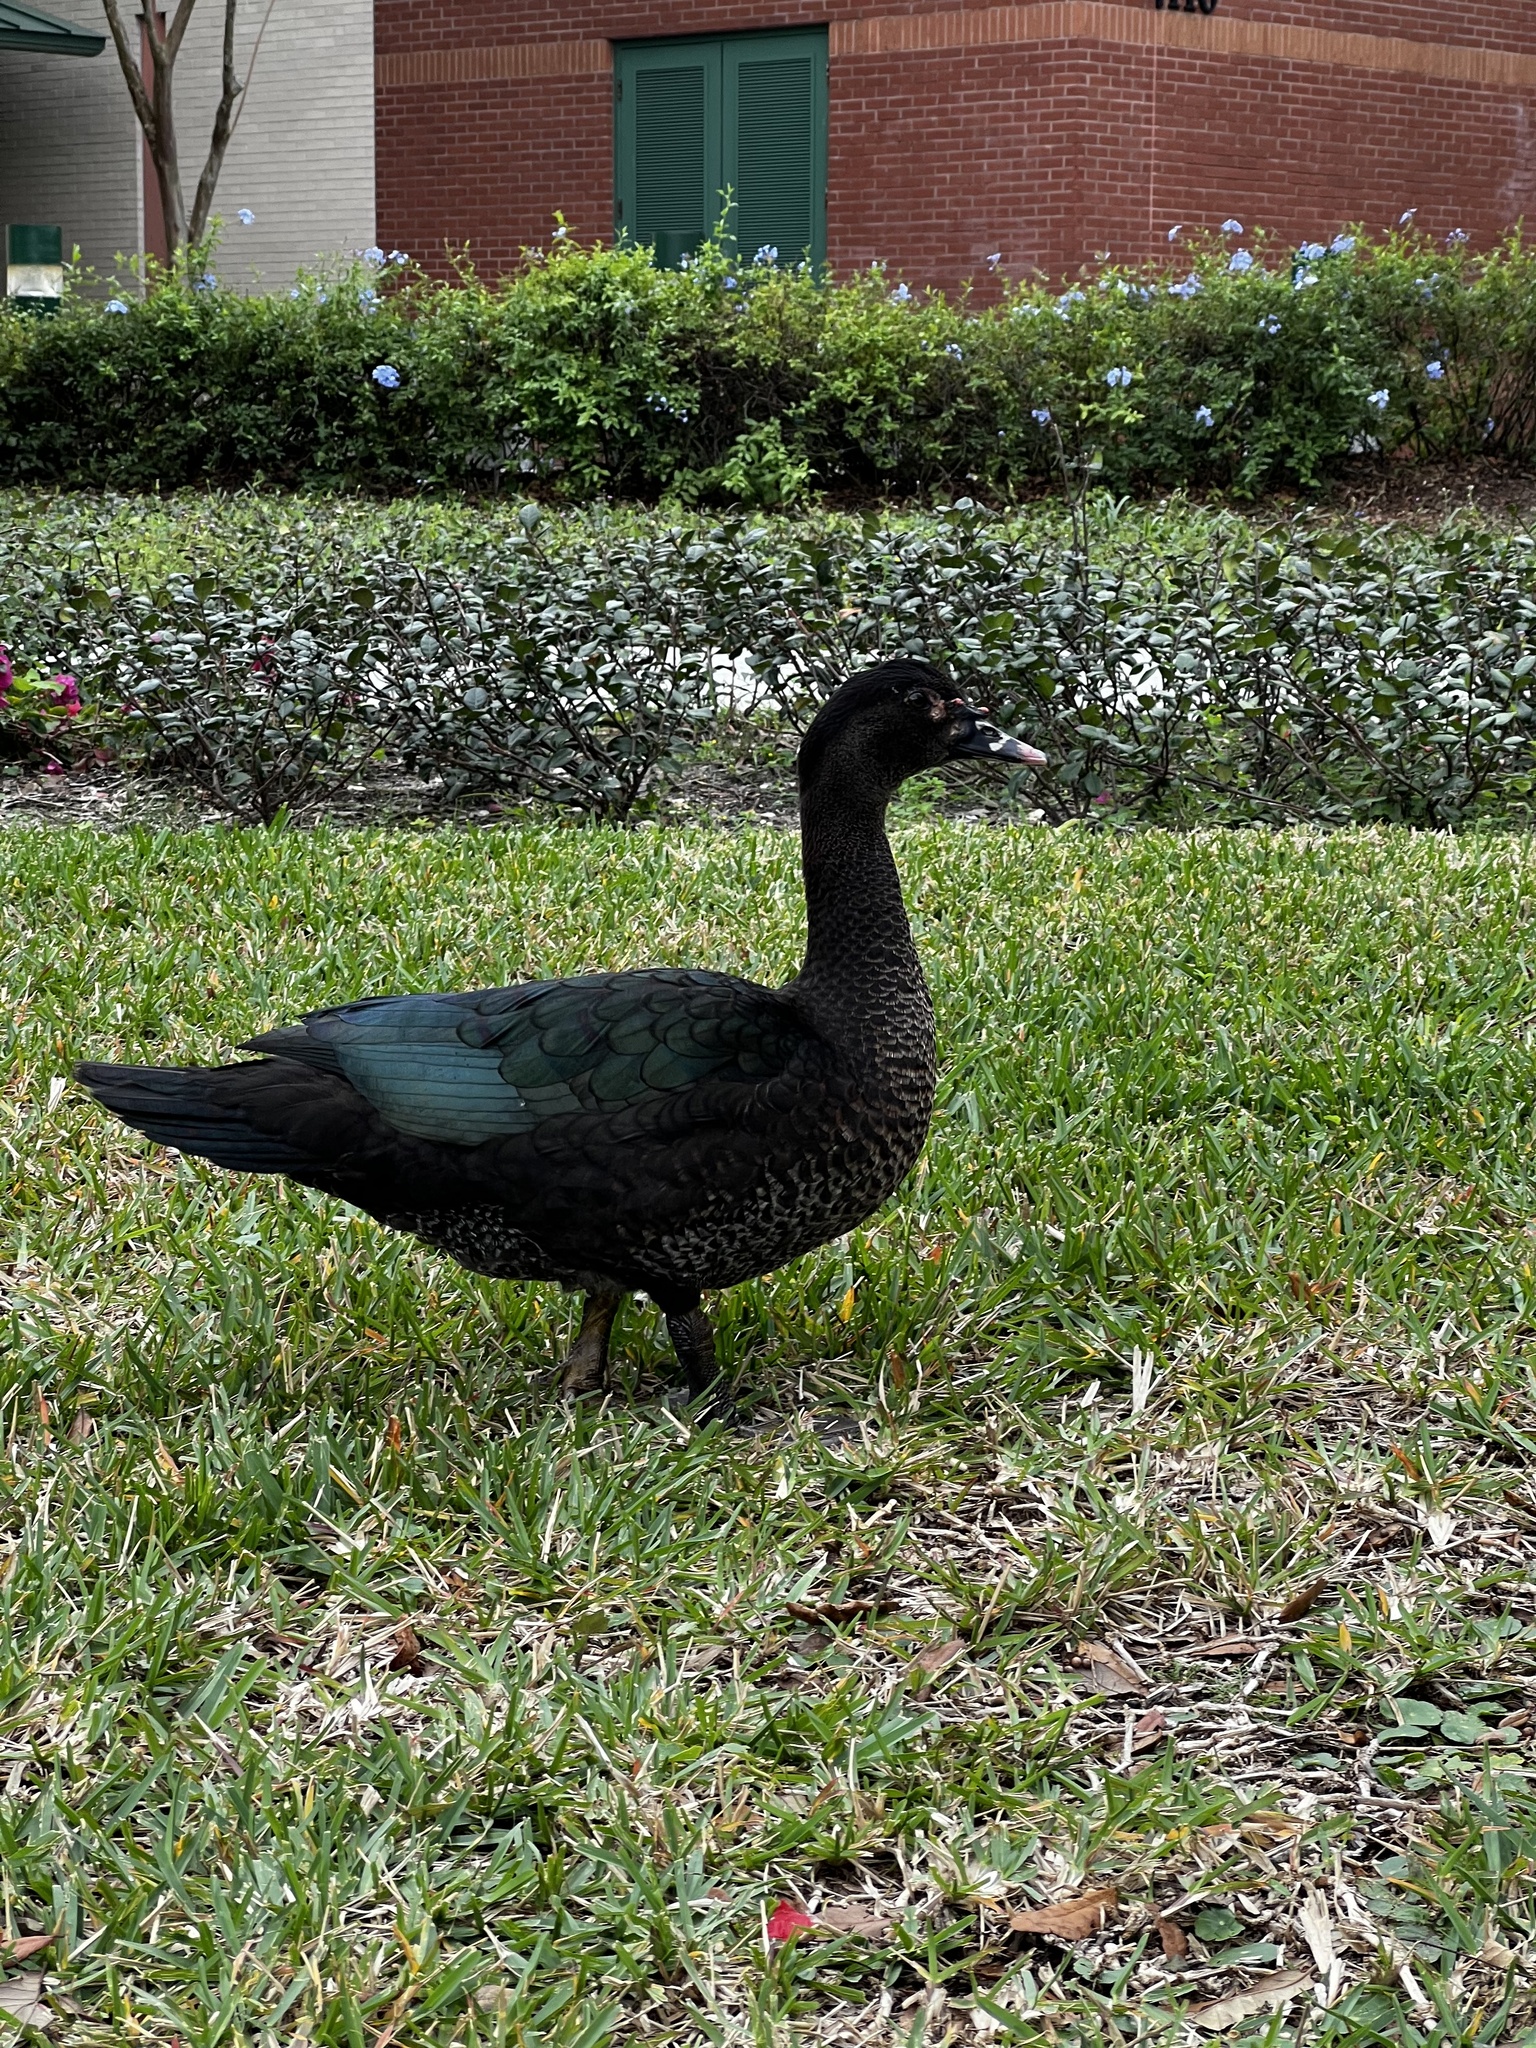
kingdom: Animalia
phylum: Chordata
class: Aves
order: Anseriformes
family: Anatidae
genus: Cairina
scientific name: Cairina moschata
